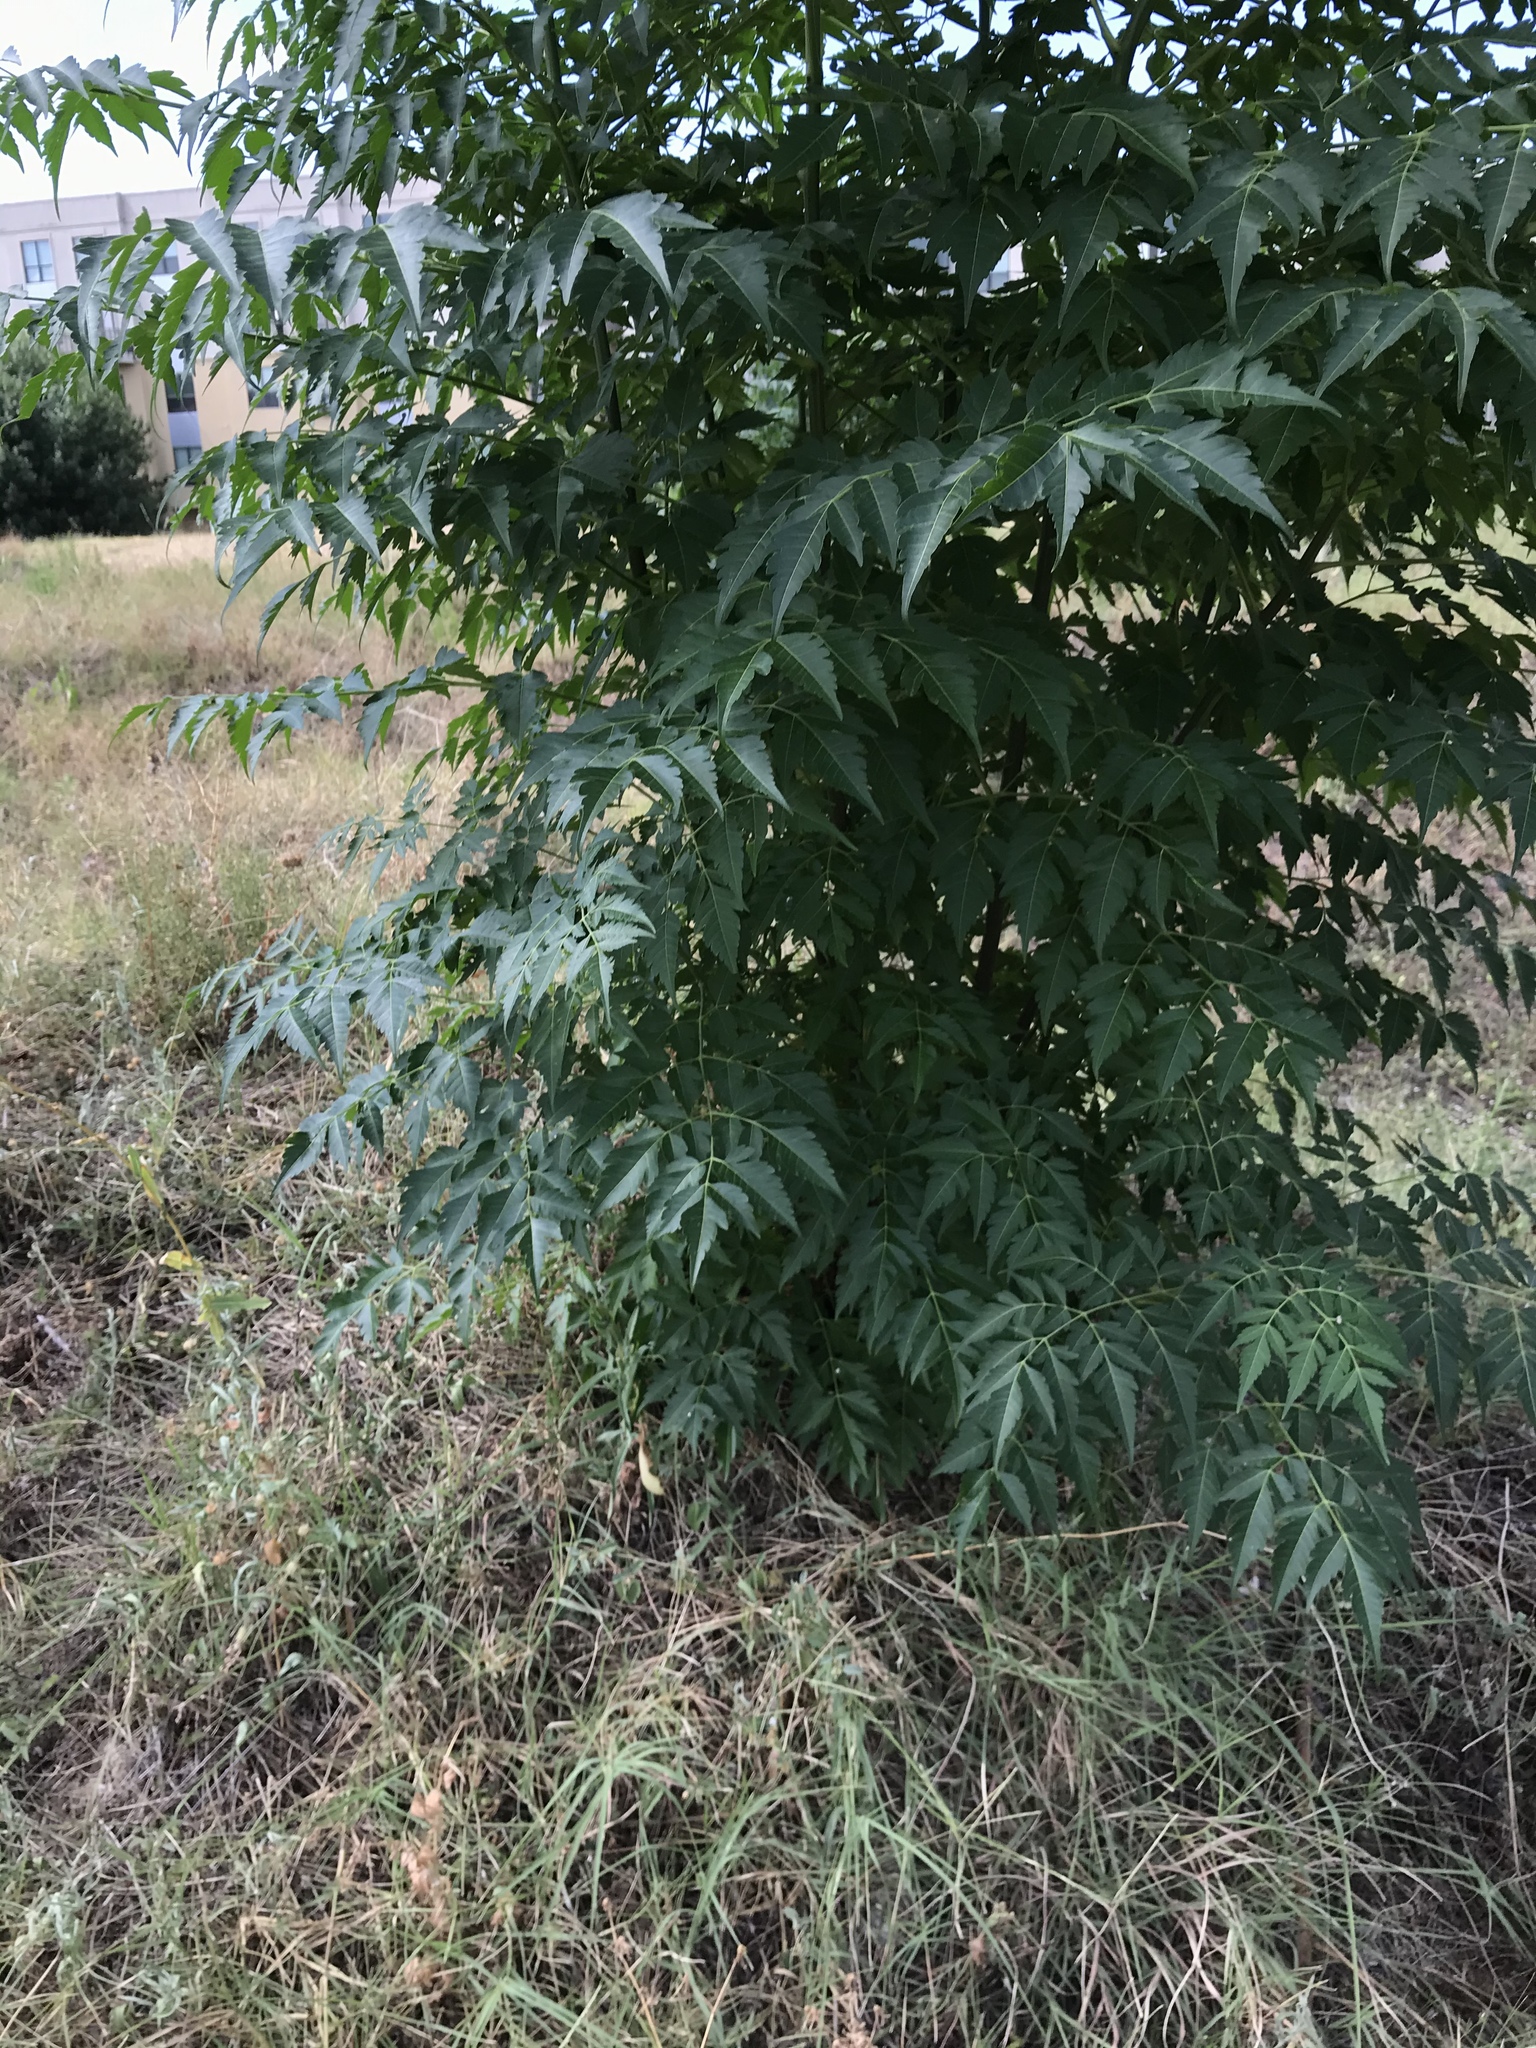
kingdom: Plantae
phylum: Tracheophyta
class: Magnoliopsida
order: Sapindales
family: Meliaceae
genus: Melia
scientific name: Melia azedarach
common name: Chinaberrytree
